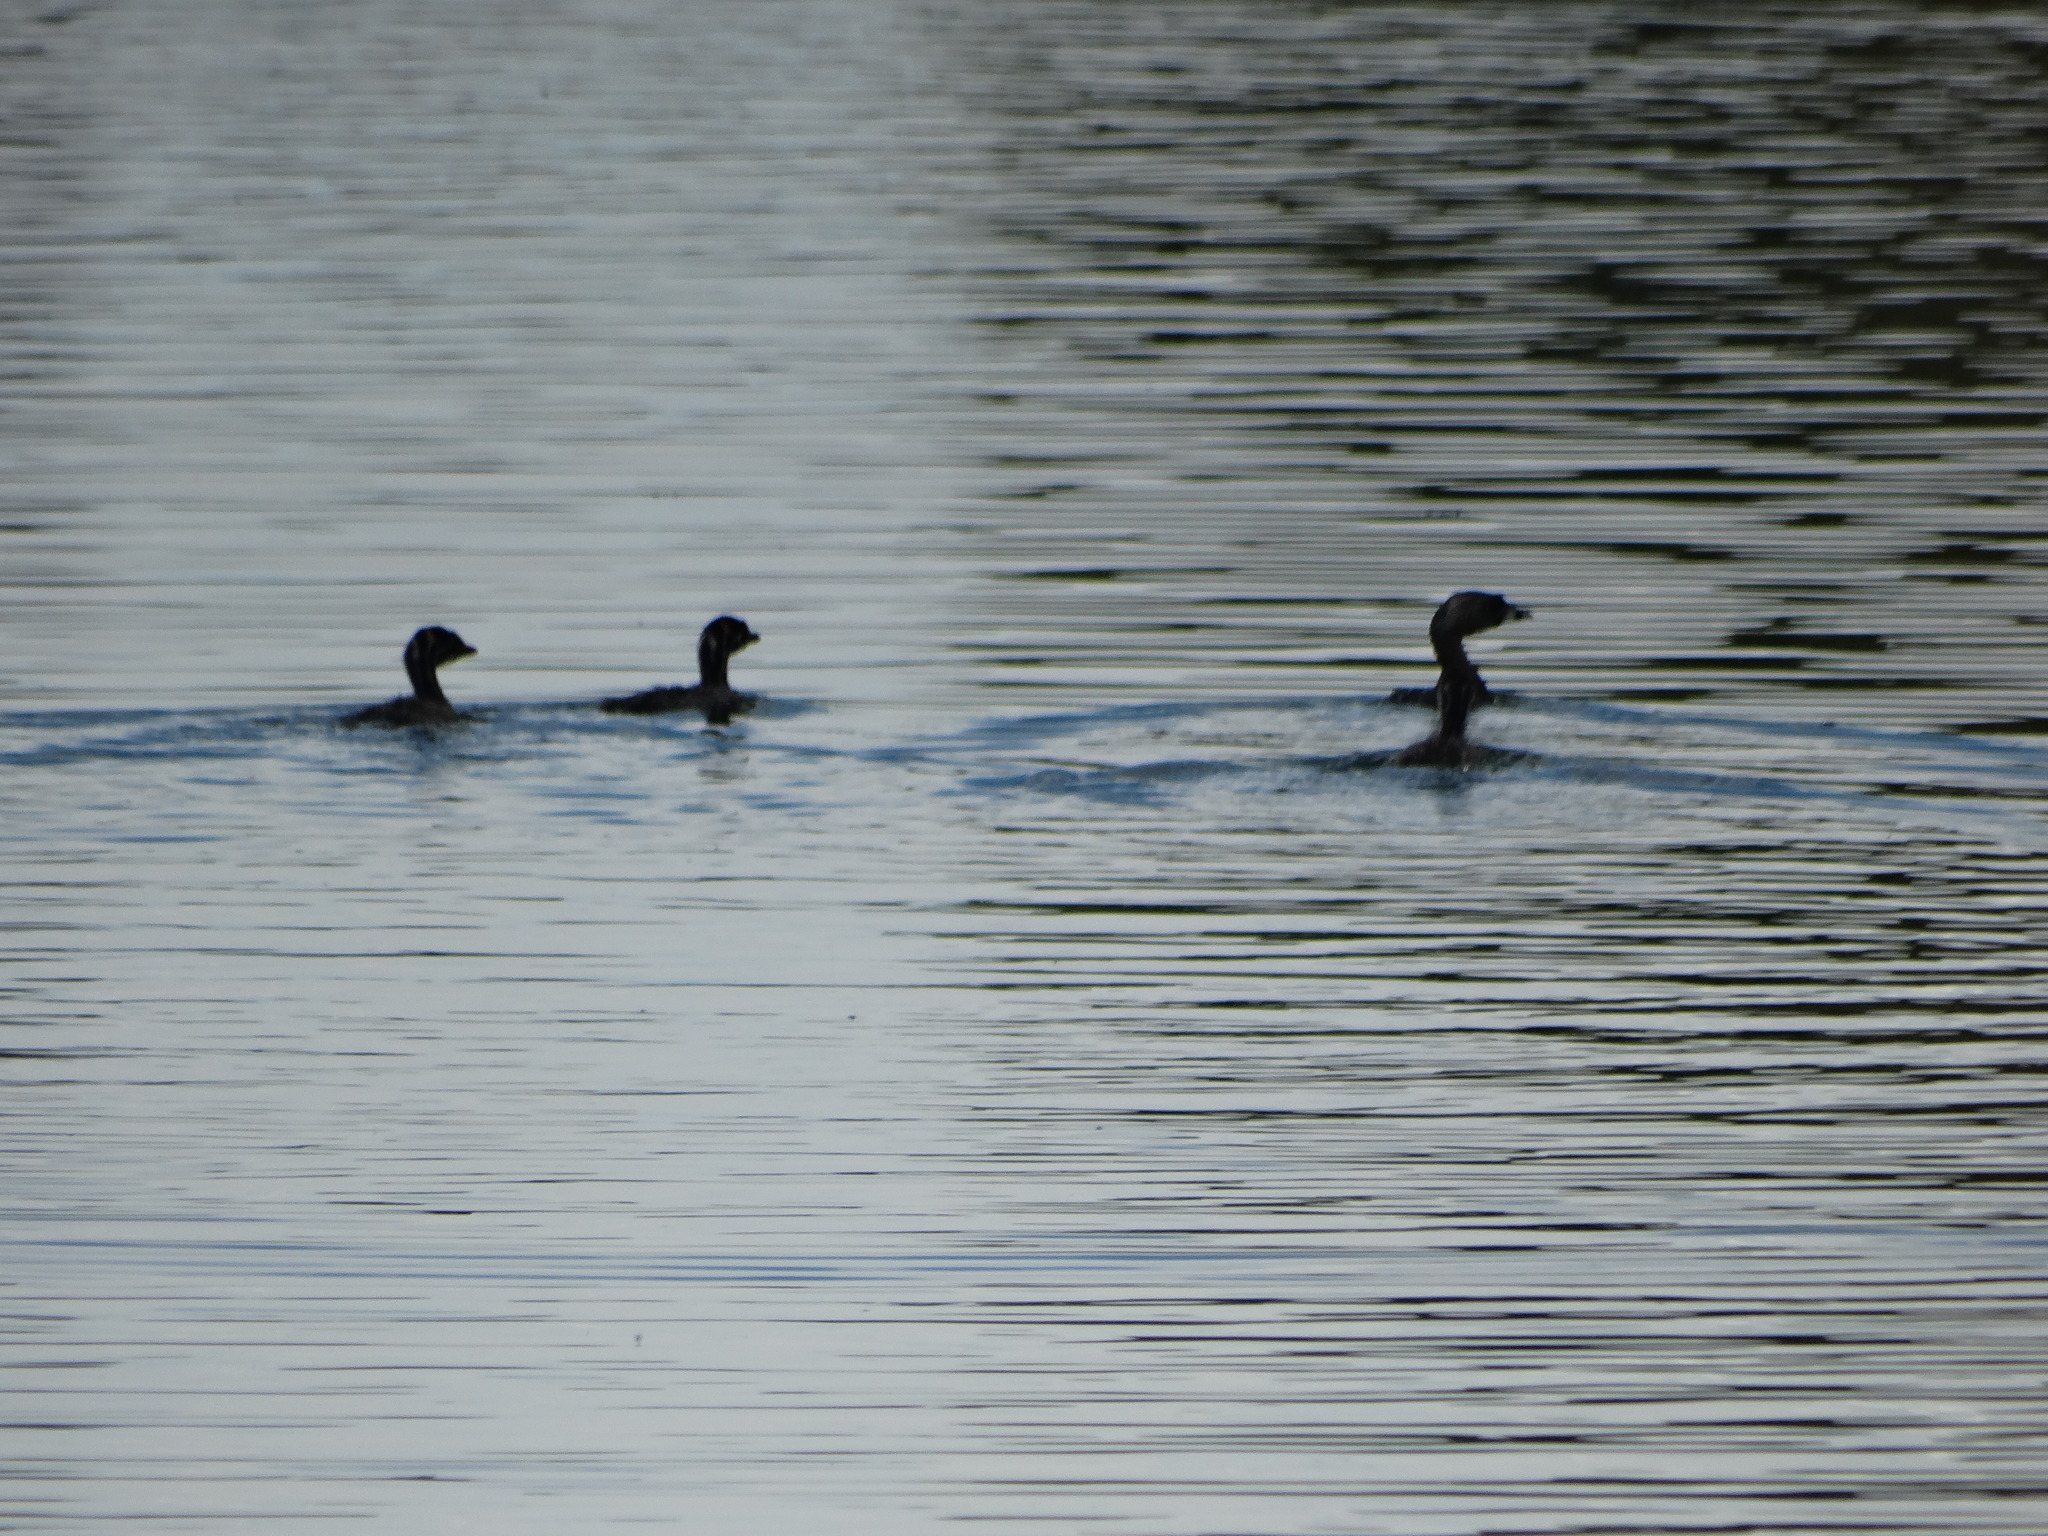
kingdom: Animalia
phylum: Chordata
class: Aves
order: Podicipediformes
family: Podicipedidae
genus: Podilymbus
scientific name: Podilymbus podiceps
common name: Pied-billed grebe
